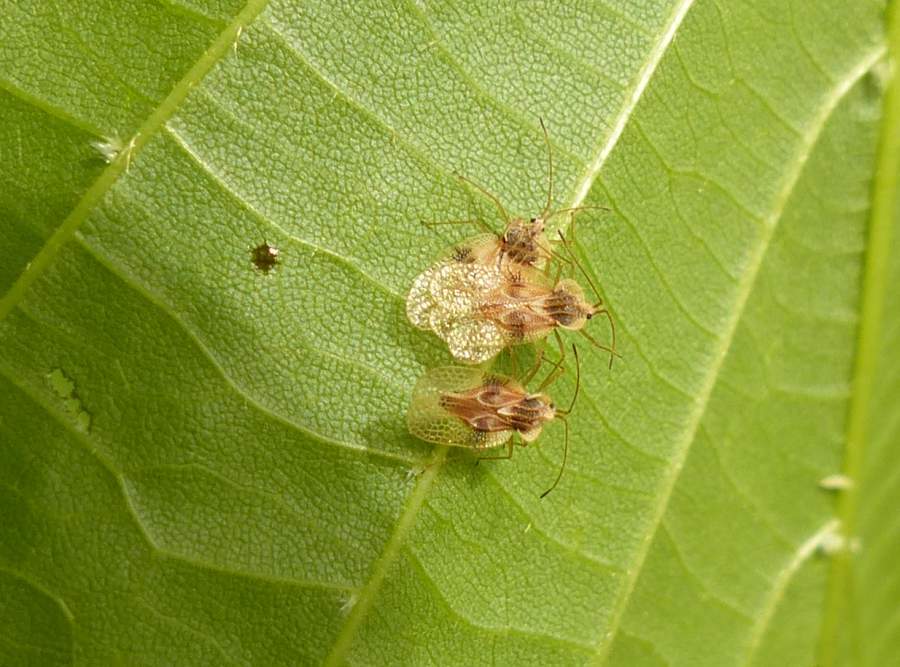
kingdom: Animalia
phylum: Arthropoda
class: Insecta
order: Hemiptera
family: Tingidae
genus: Gargaphia
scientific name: Gargaphia tiliae
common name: Basswood lace bug
